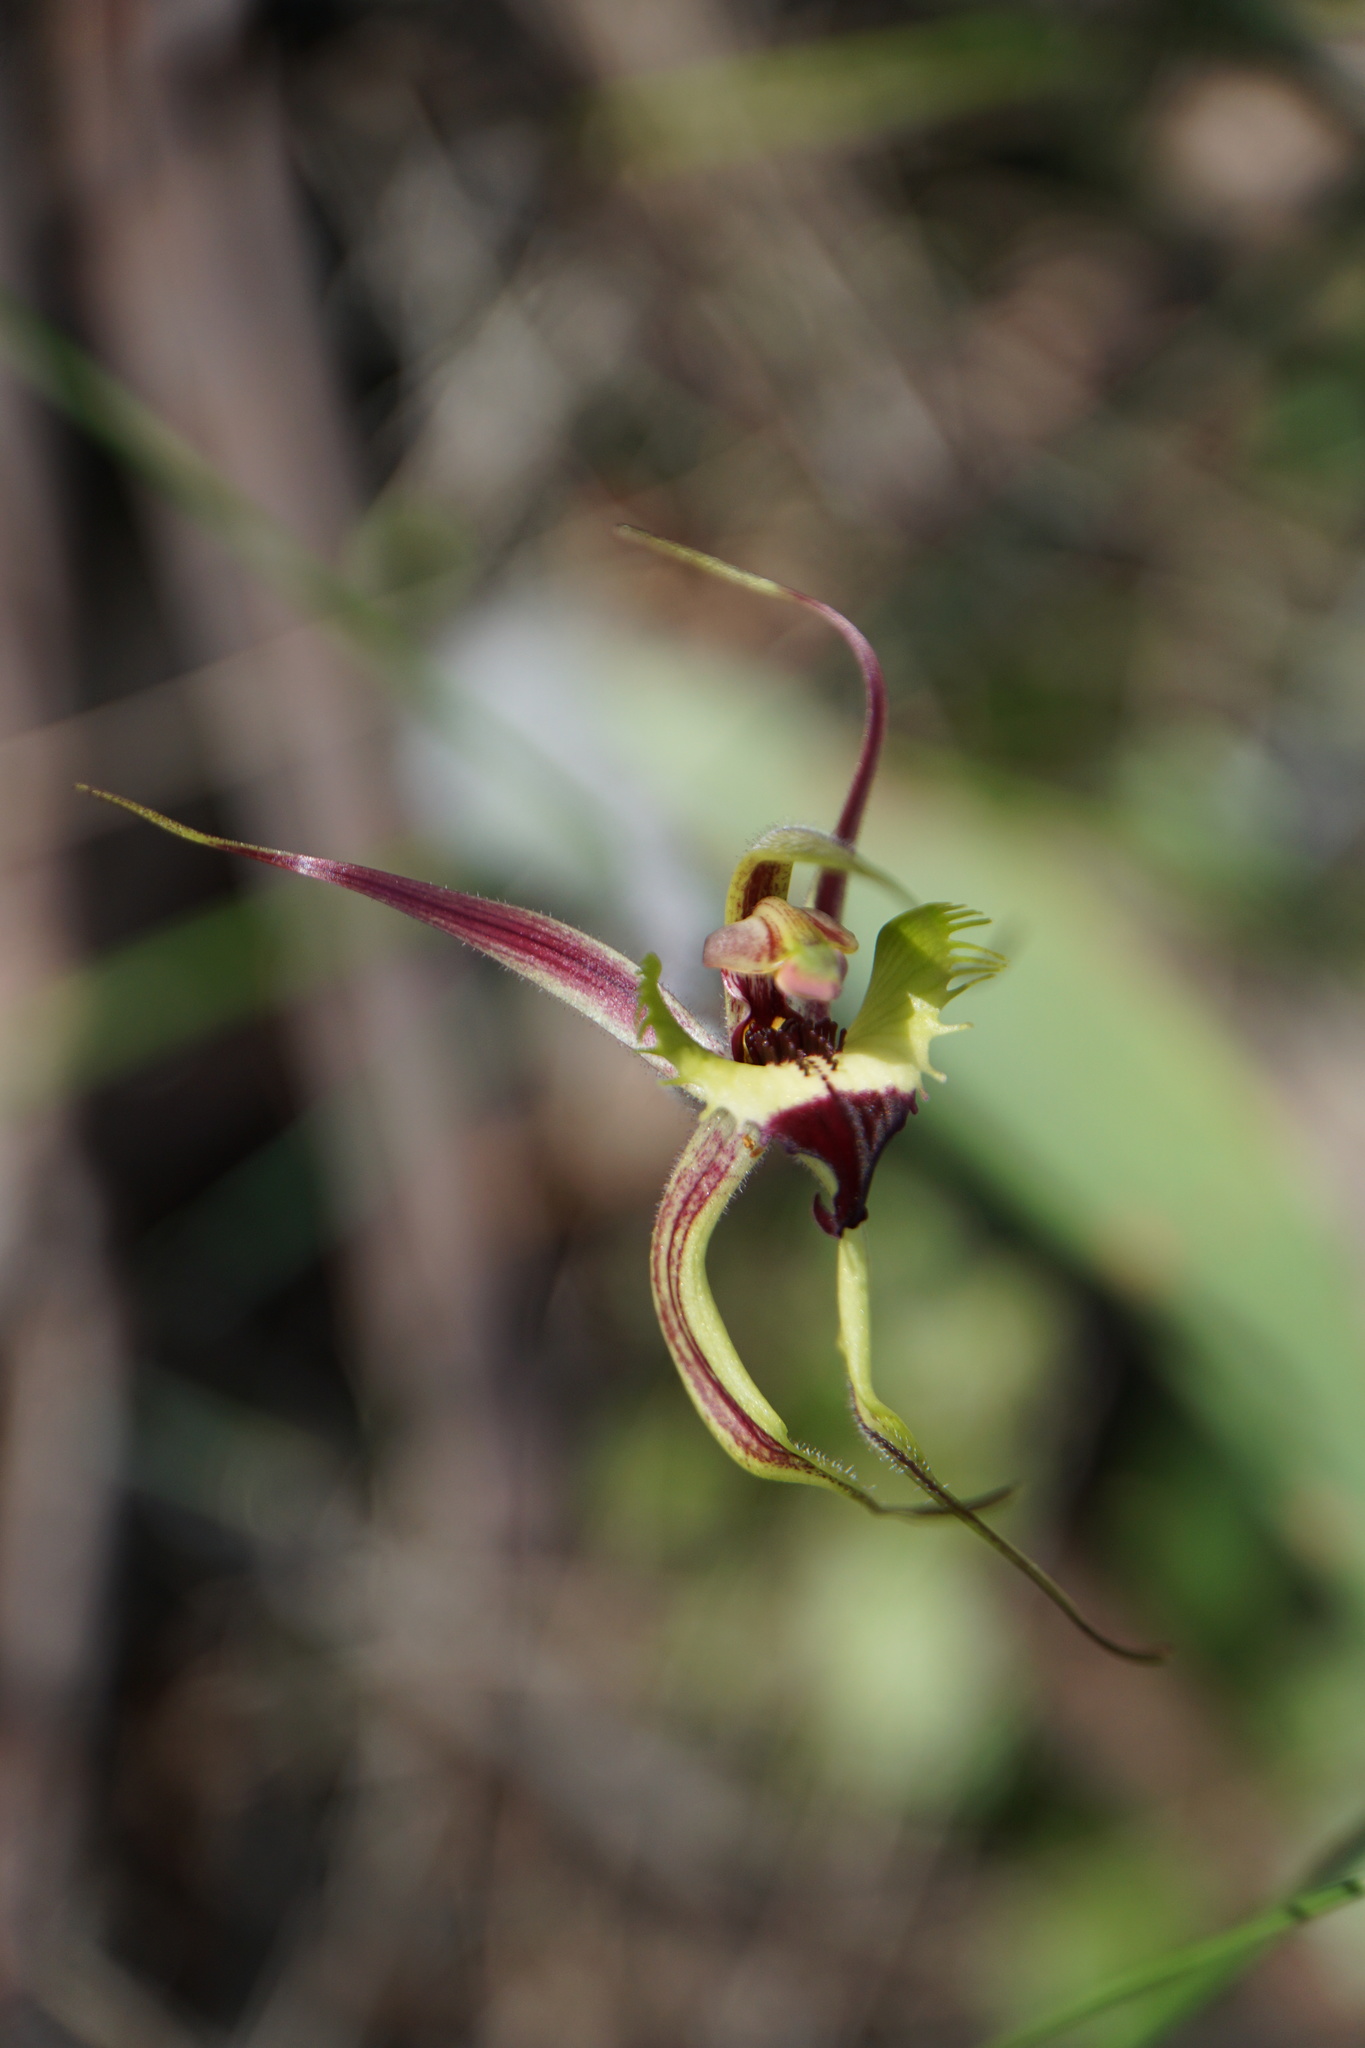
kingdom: Plantae
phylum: Tracheophyta
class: Liliopsida
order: Asparagales
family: Orchidaceae
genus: Caladenia
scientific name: Caladenia falcata
